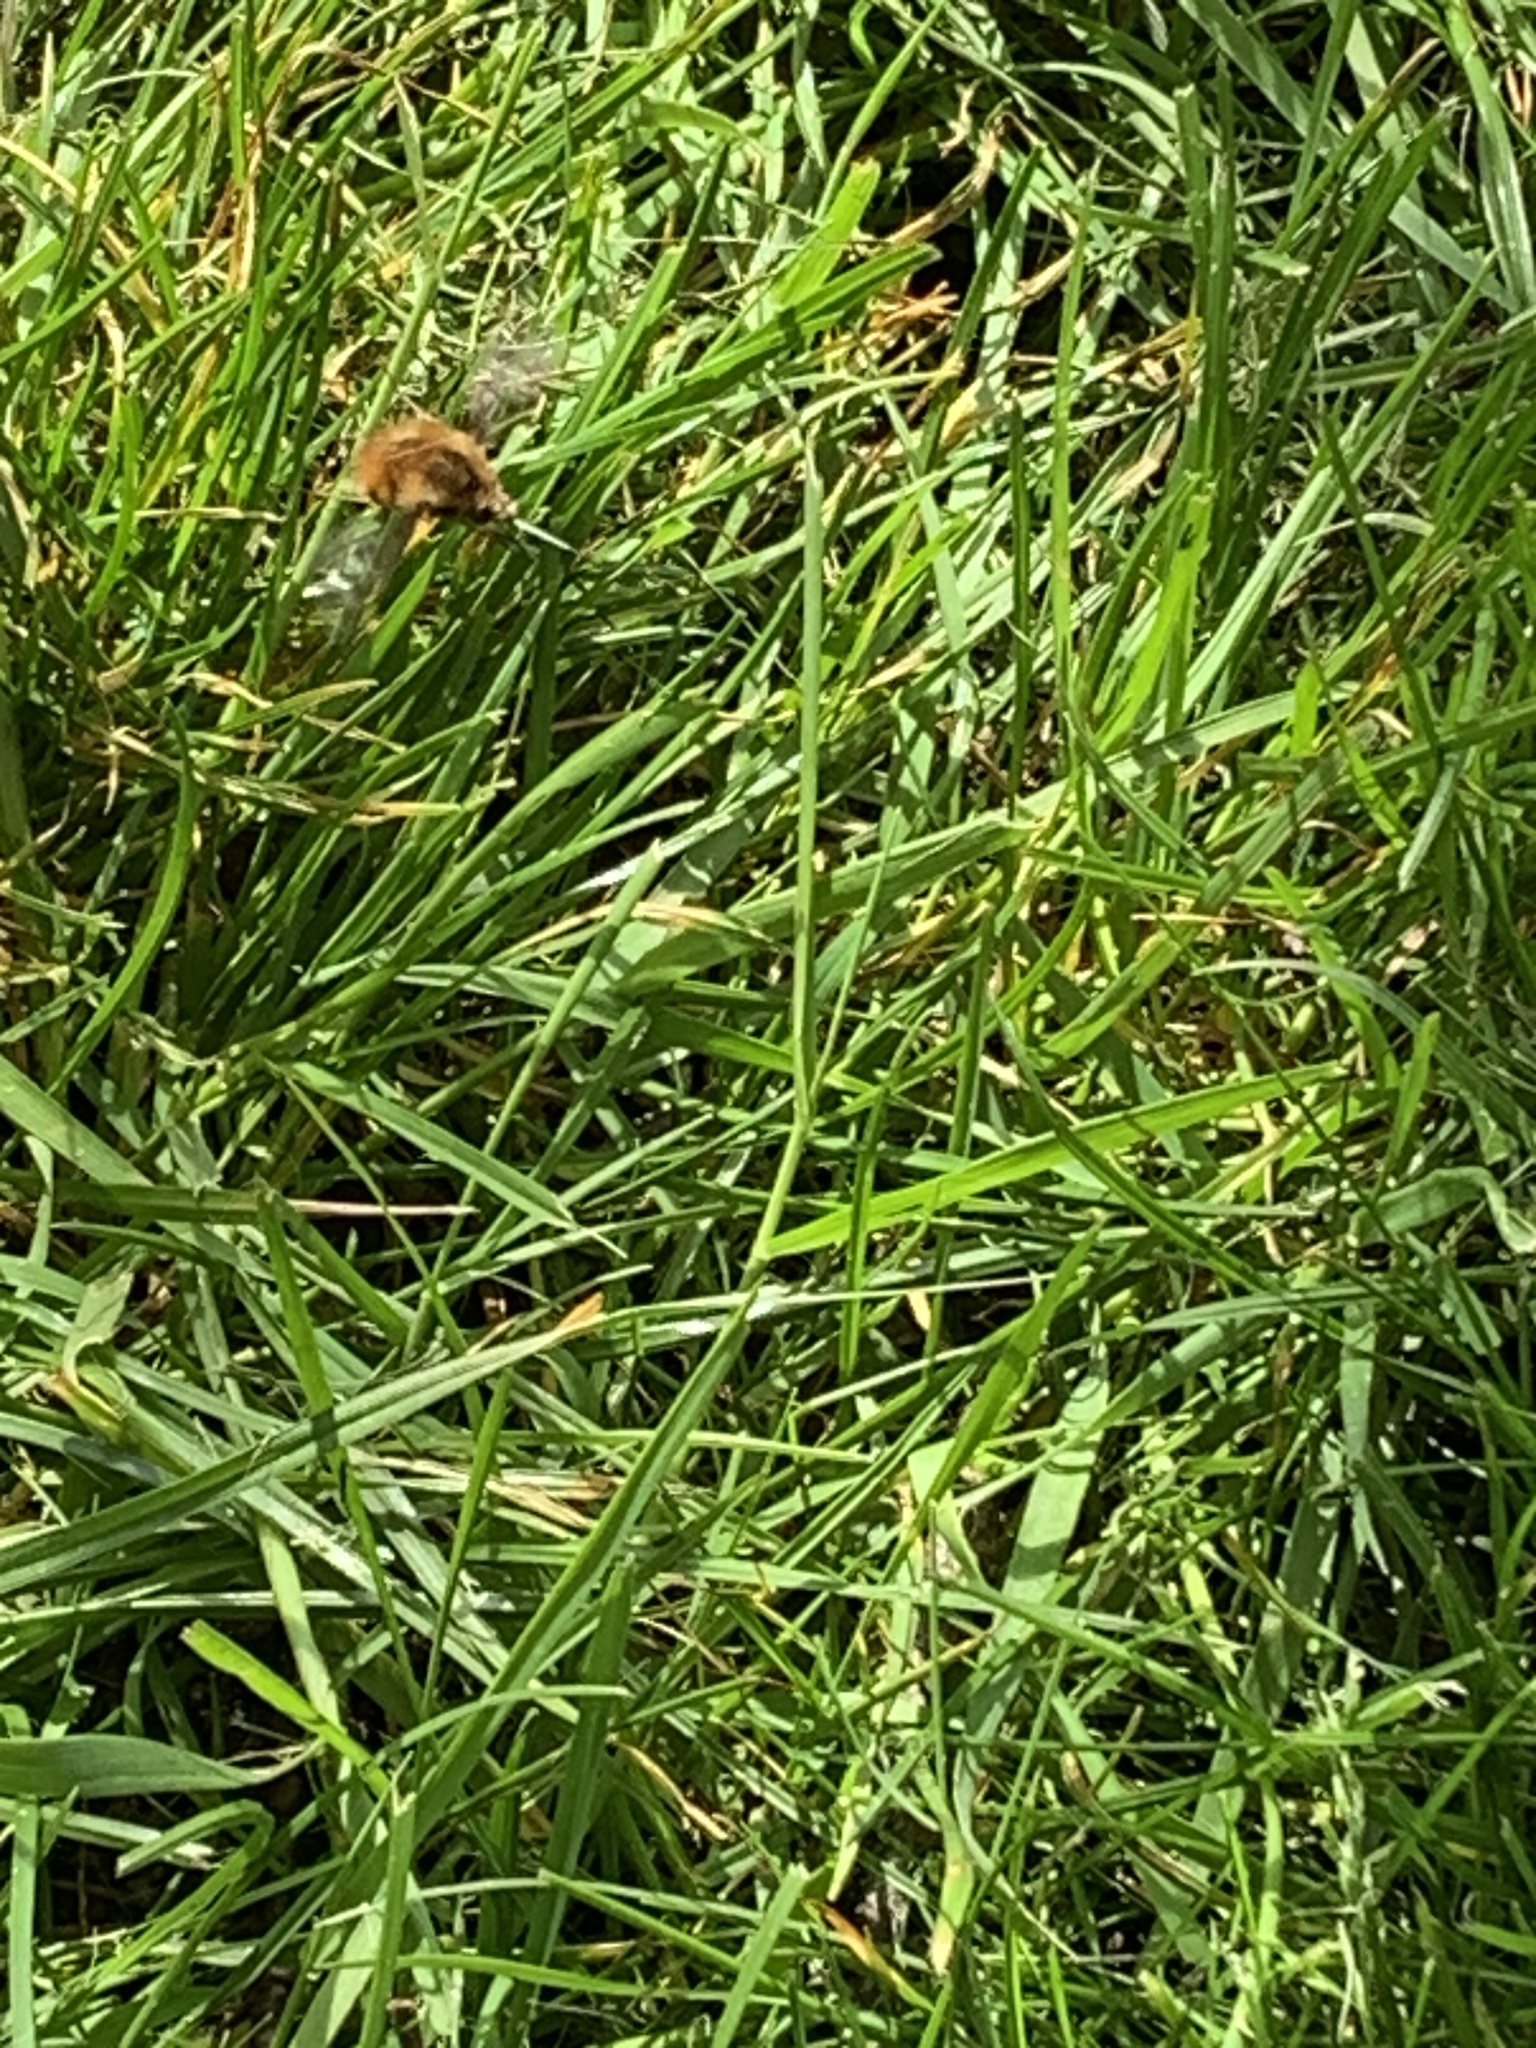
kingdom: Animalia
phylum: Arthropoda
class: Insecta
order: Diptera
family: Bombyliidae
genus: Bombylius
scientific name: Bombylius major
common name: Bee fly
